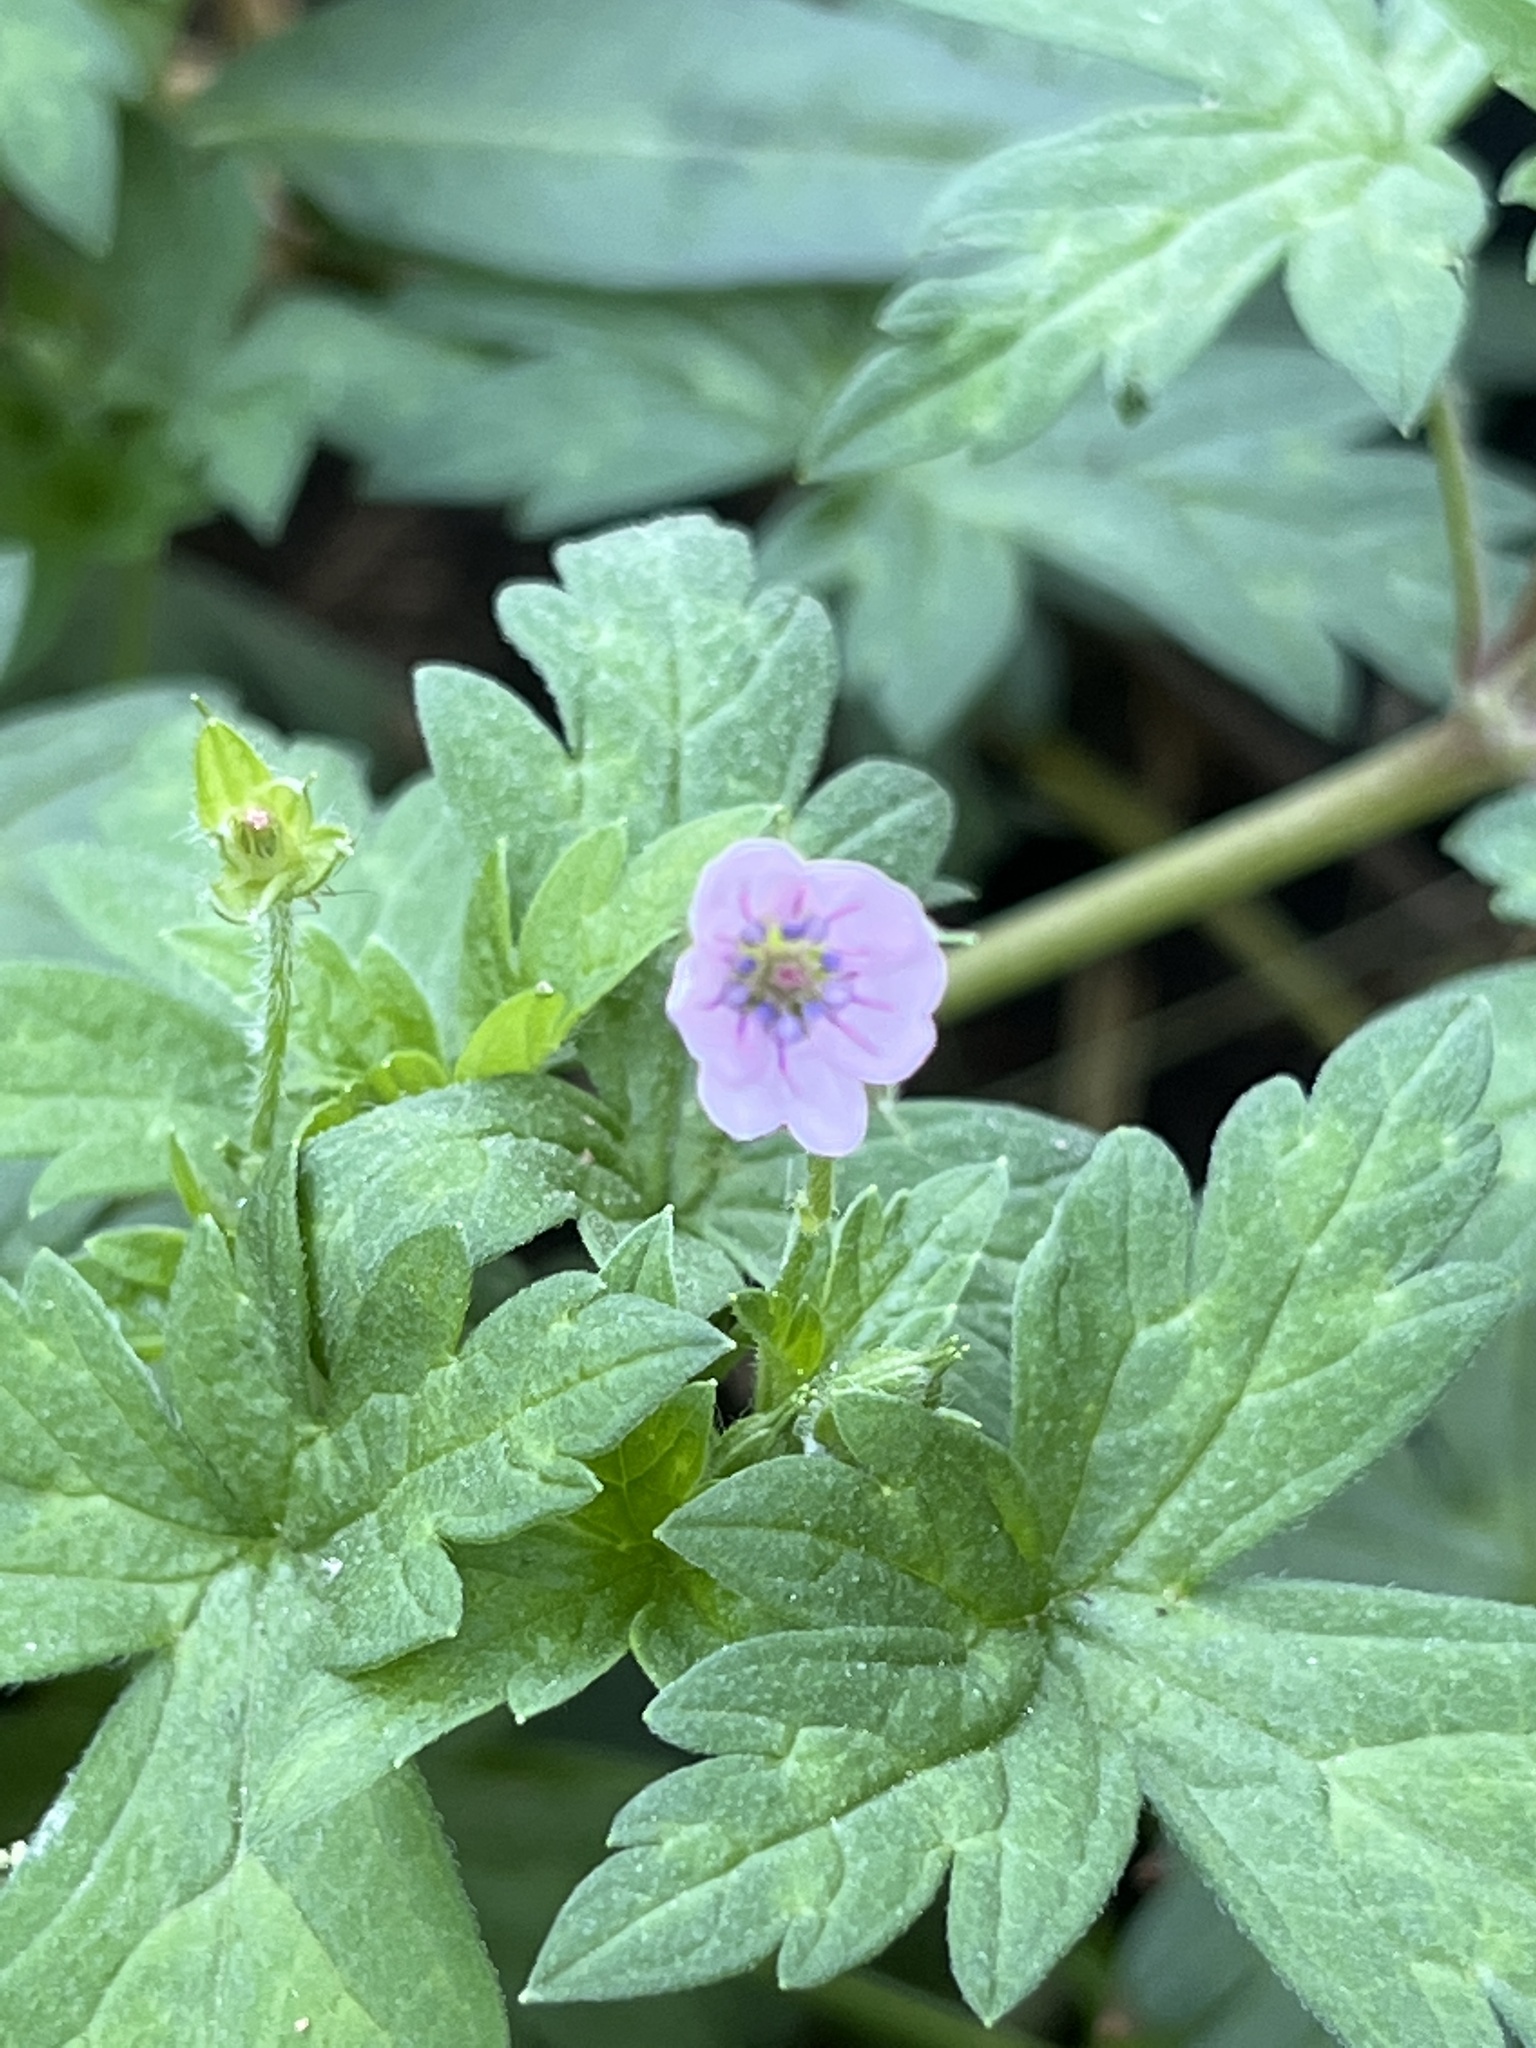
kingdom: Plantae
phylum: Tracheophyta
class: Magnoliopsida
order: Geraniales
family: Geraniaceae
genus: Geranium
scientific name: Geranium sibiricum
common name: Siberian crane's-bill
